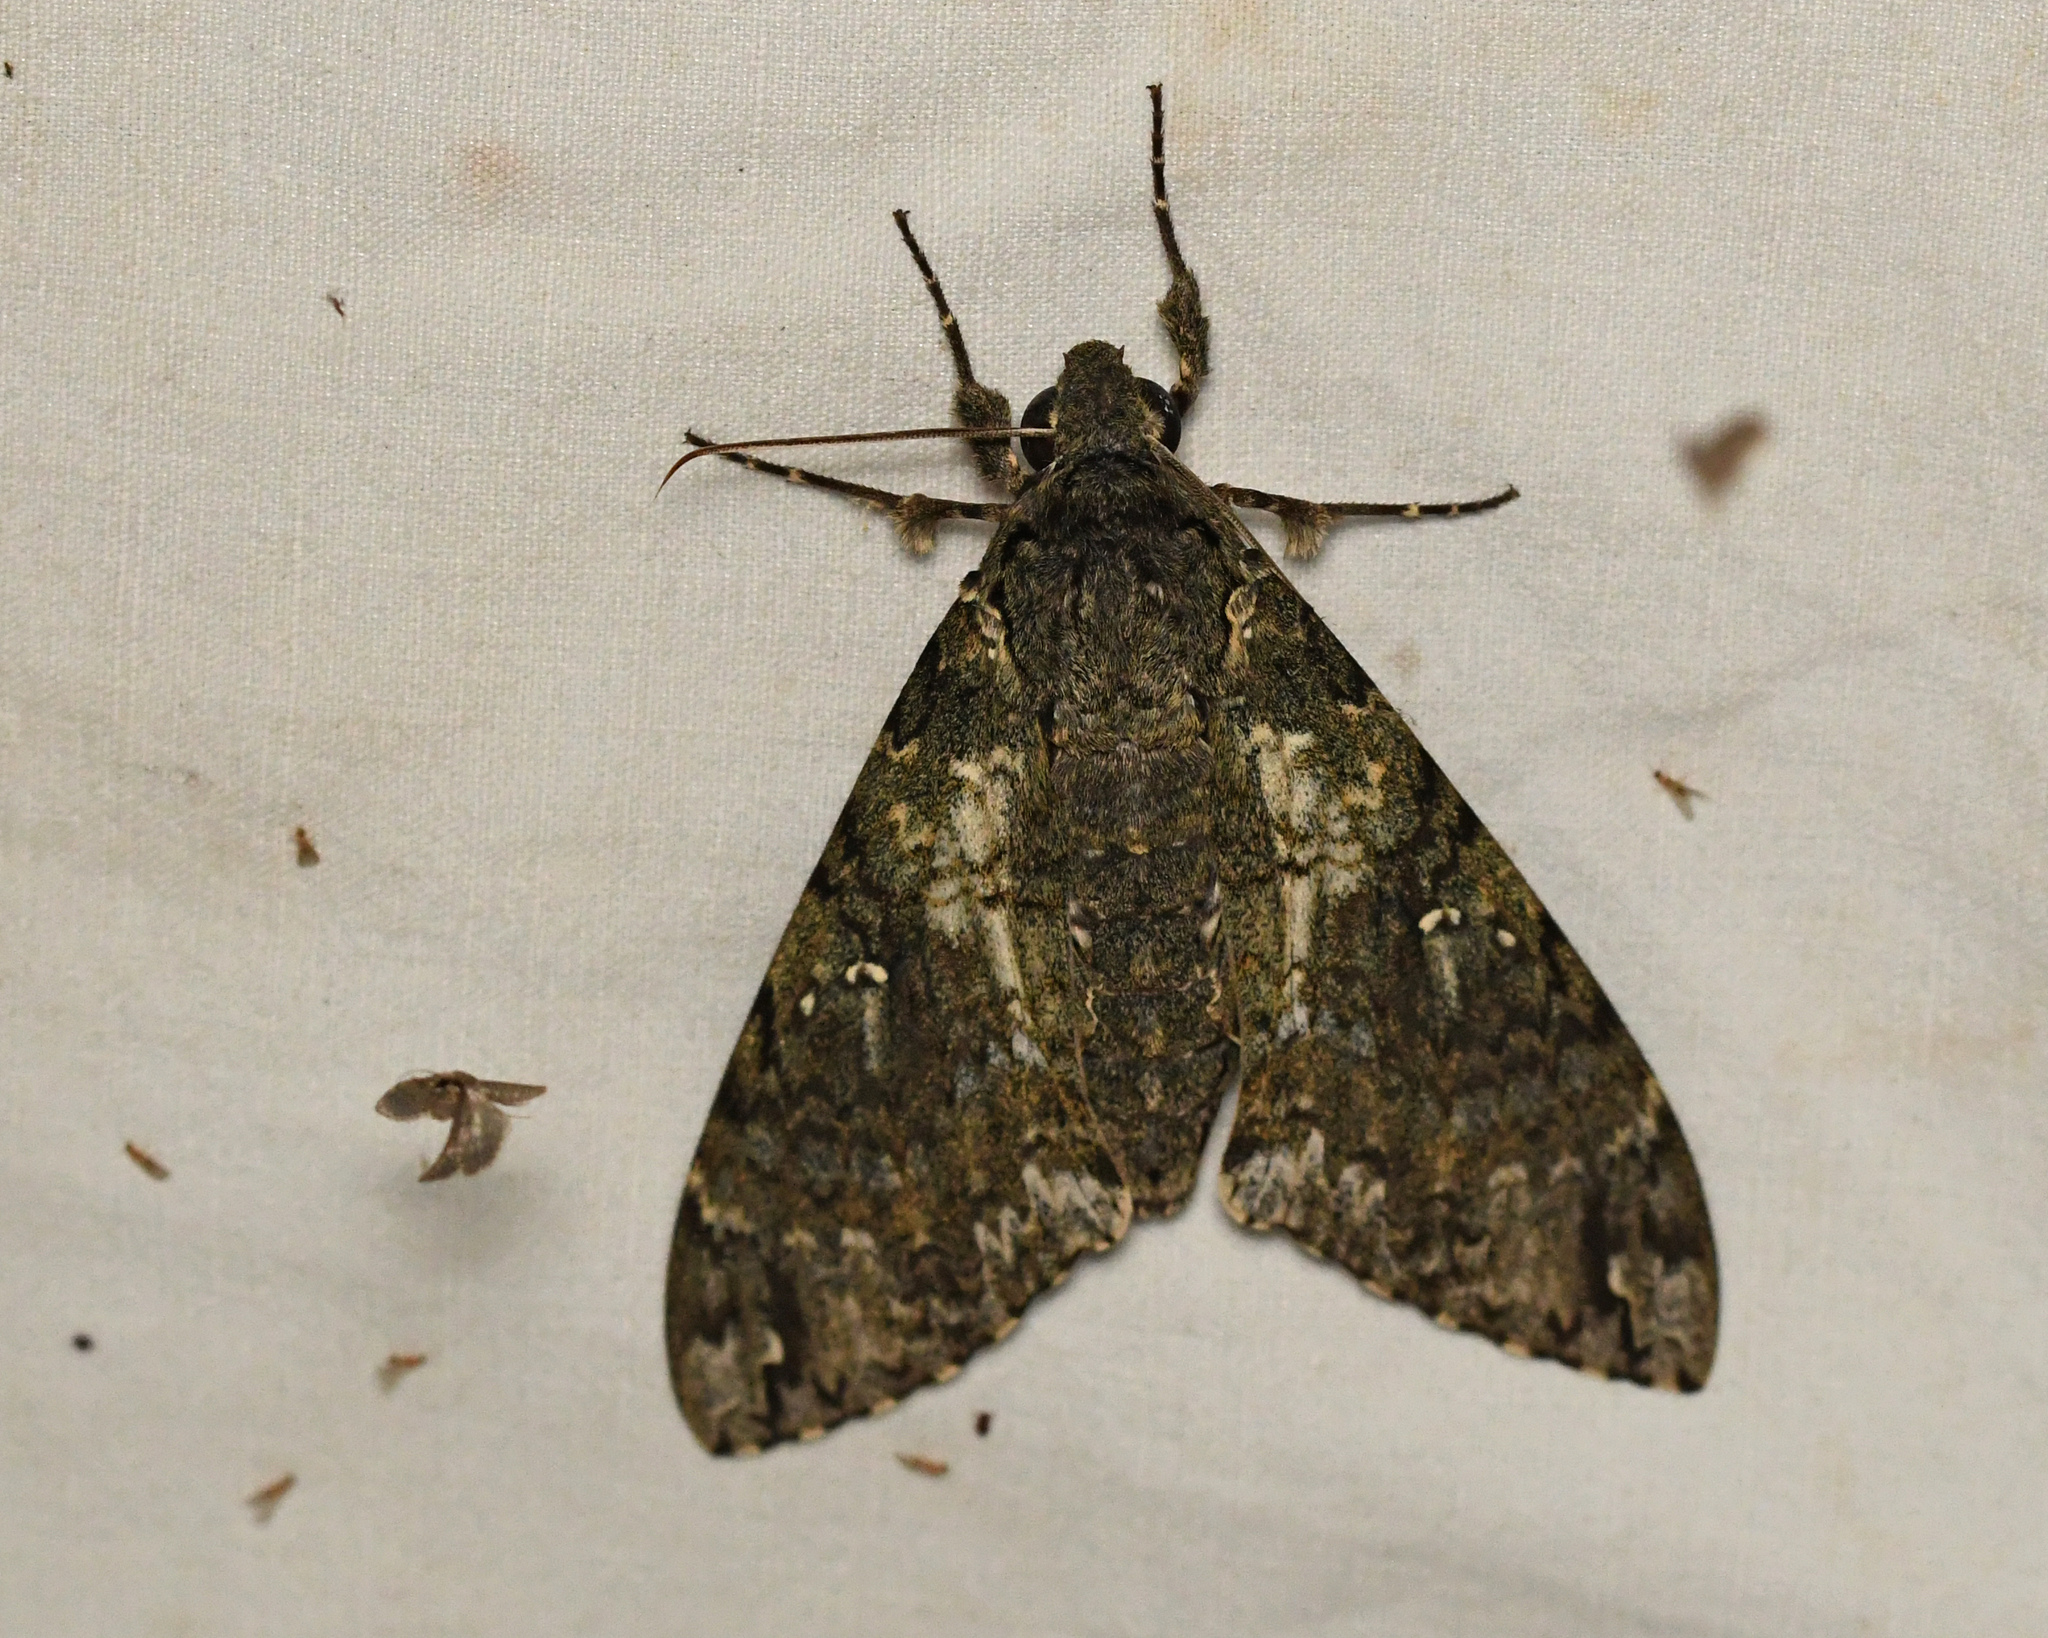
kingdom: Animalia
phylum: Arthropoda
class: Insecta
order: Lepidoptera
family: Sphingidae
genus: Cocytius
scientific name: Cocytius duponchel
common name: Duponchel's sphinx
